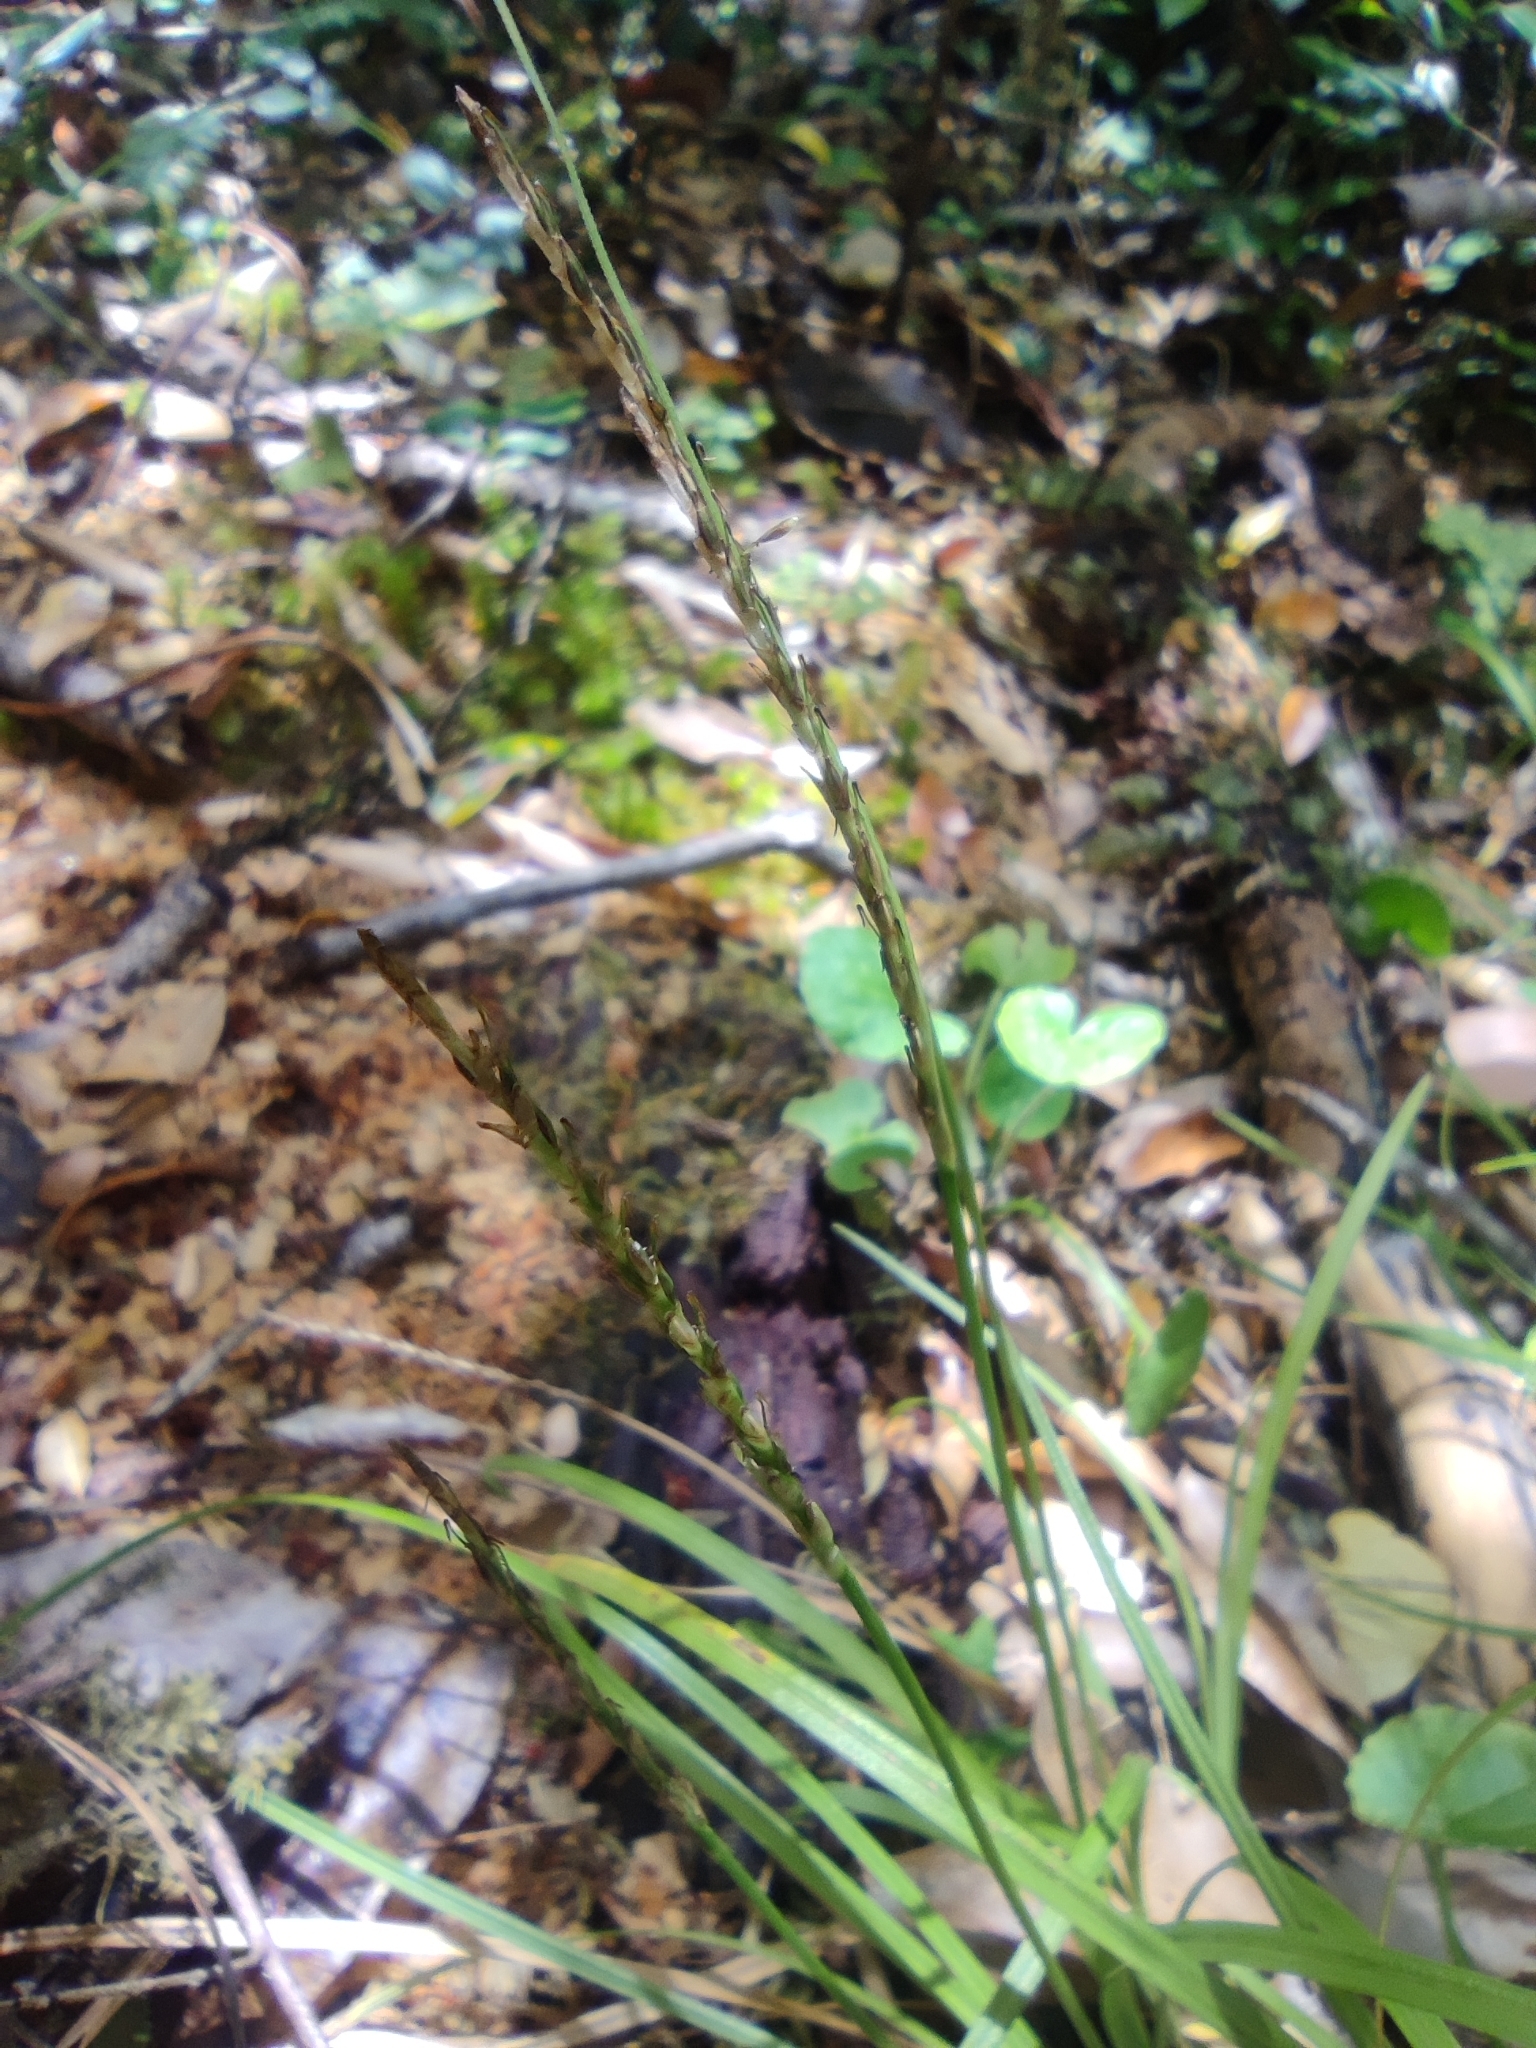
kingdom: Plantae
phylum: Tracheophyta
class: Liliopsida
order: Poales
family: Cyperaceae
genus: Carex
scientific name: Carex firmula
